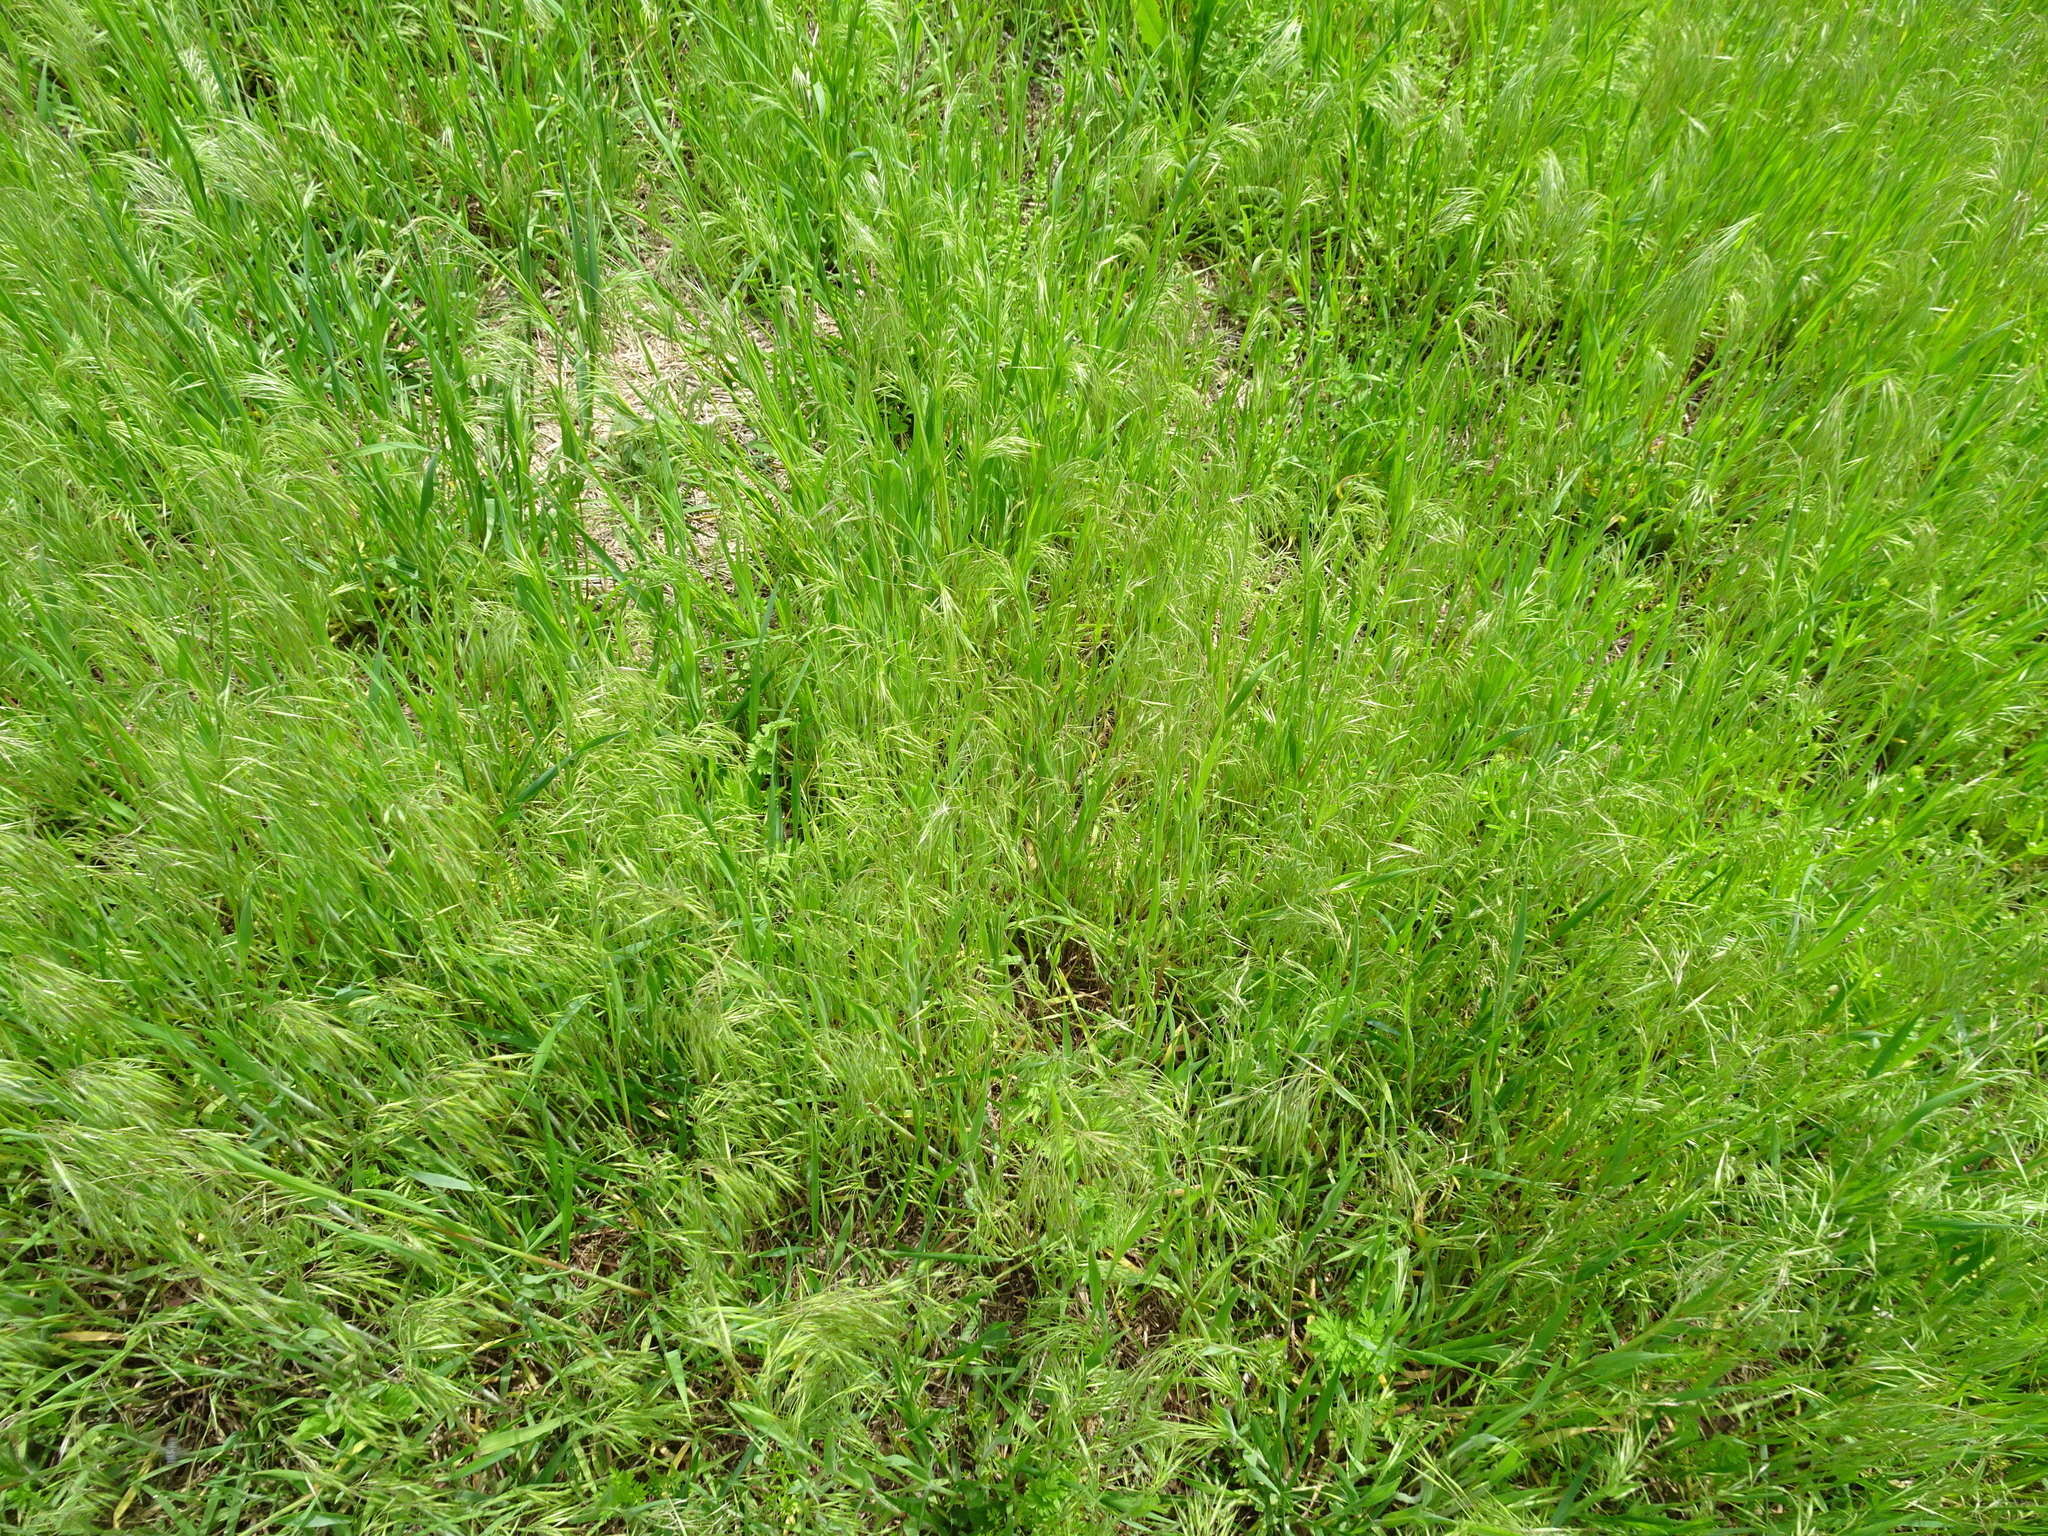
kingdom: Plantae
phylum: Tracheophyta
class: Liliopsida
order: Poales
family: Poaceae
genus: Bromus
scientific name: Bromus tectorum
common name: Cheatgrass
